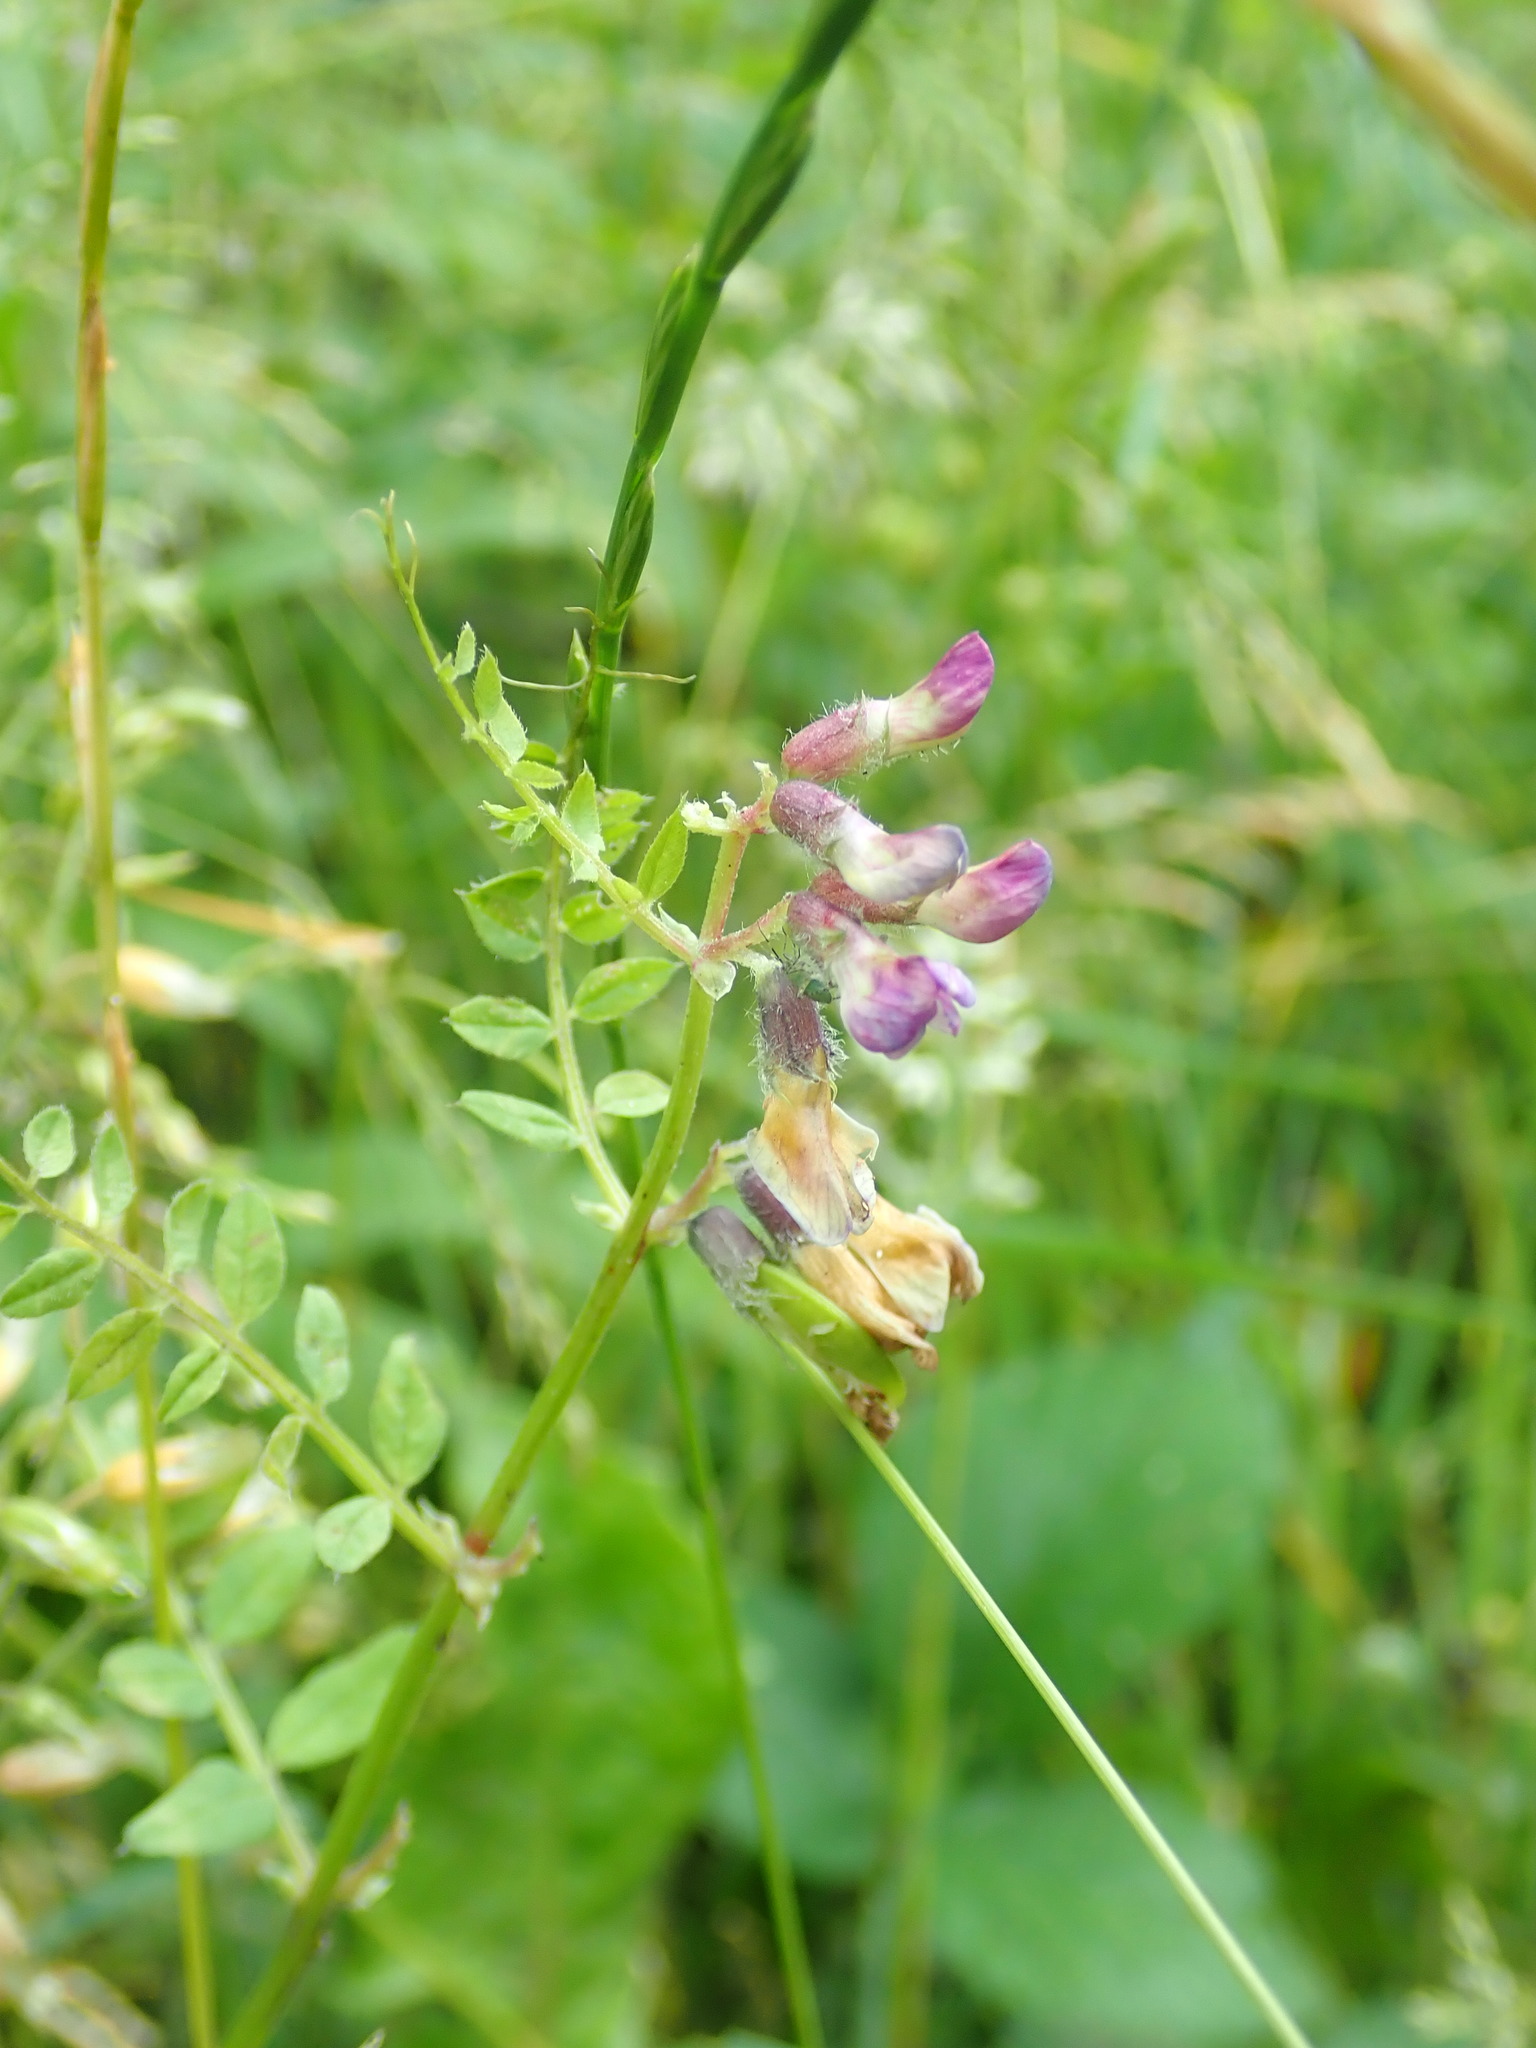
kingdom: Plantae
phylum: Tracheophyta
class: Magnoliopsida
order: Fabales
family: Fabaceae
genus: Vicia
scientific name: Vicia sepium
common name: Bush vetch
